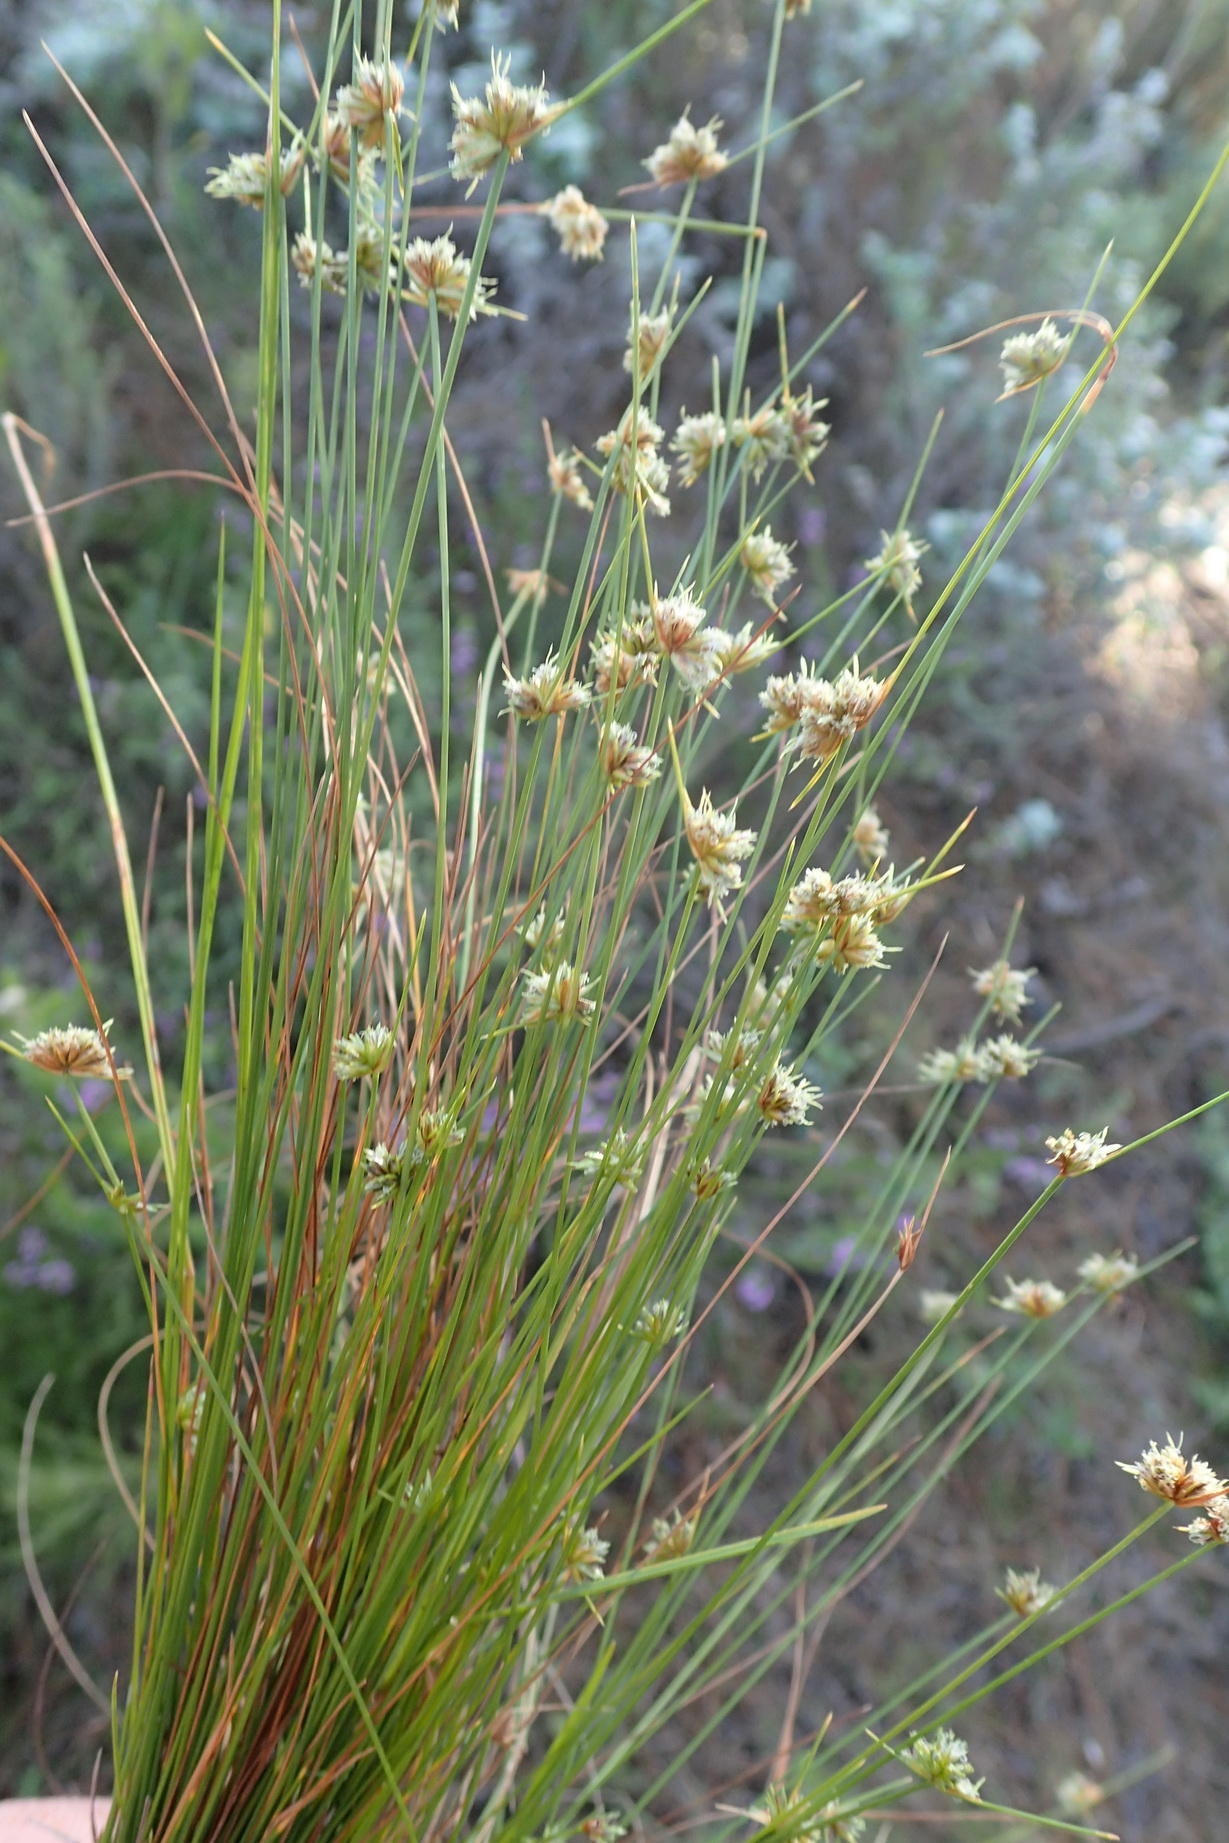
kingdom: Plantae
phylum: Tracheophyta
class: Liliopsida
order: Poales
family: Cyperaceae
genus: Ficinia
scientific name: Ficinia albicans
